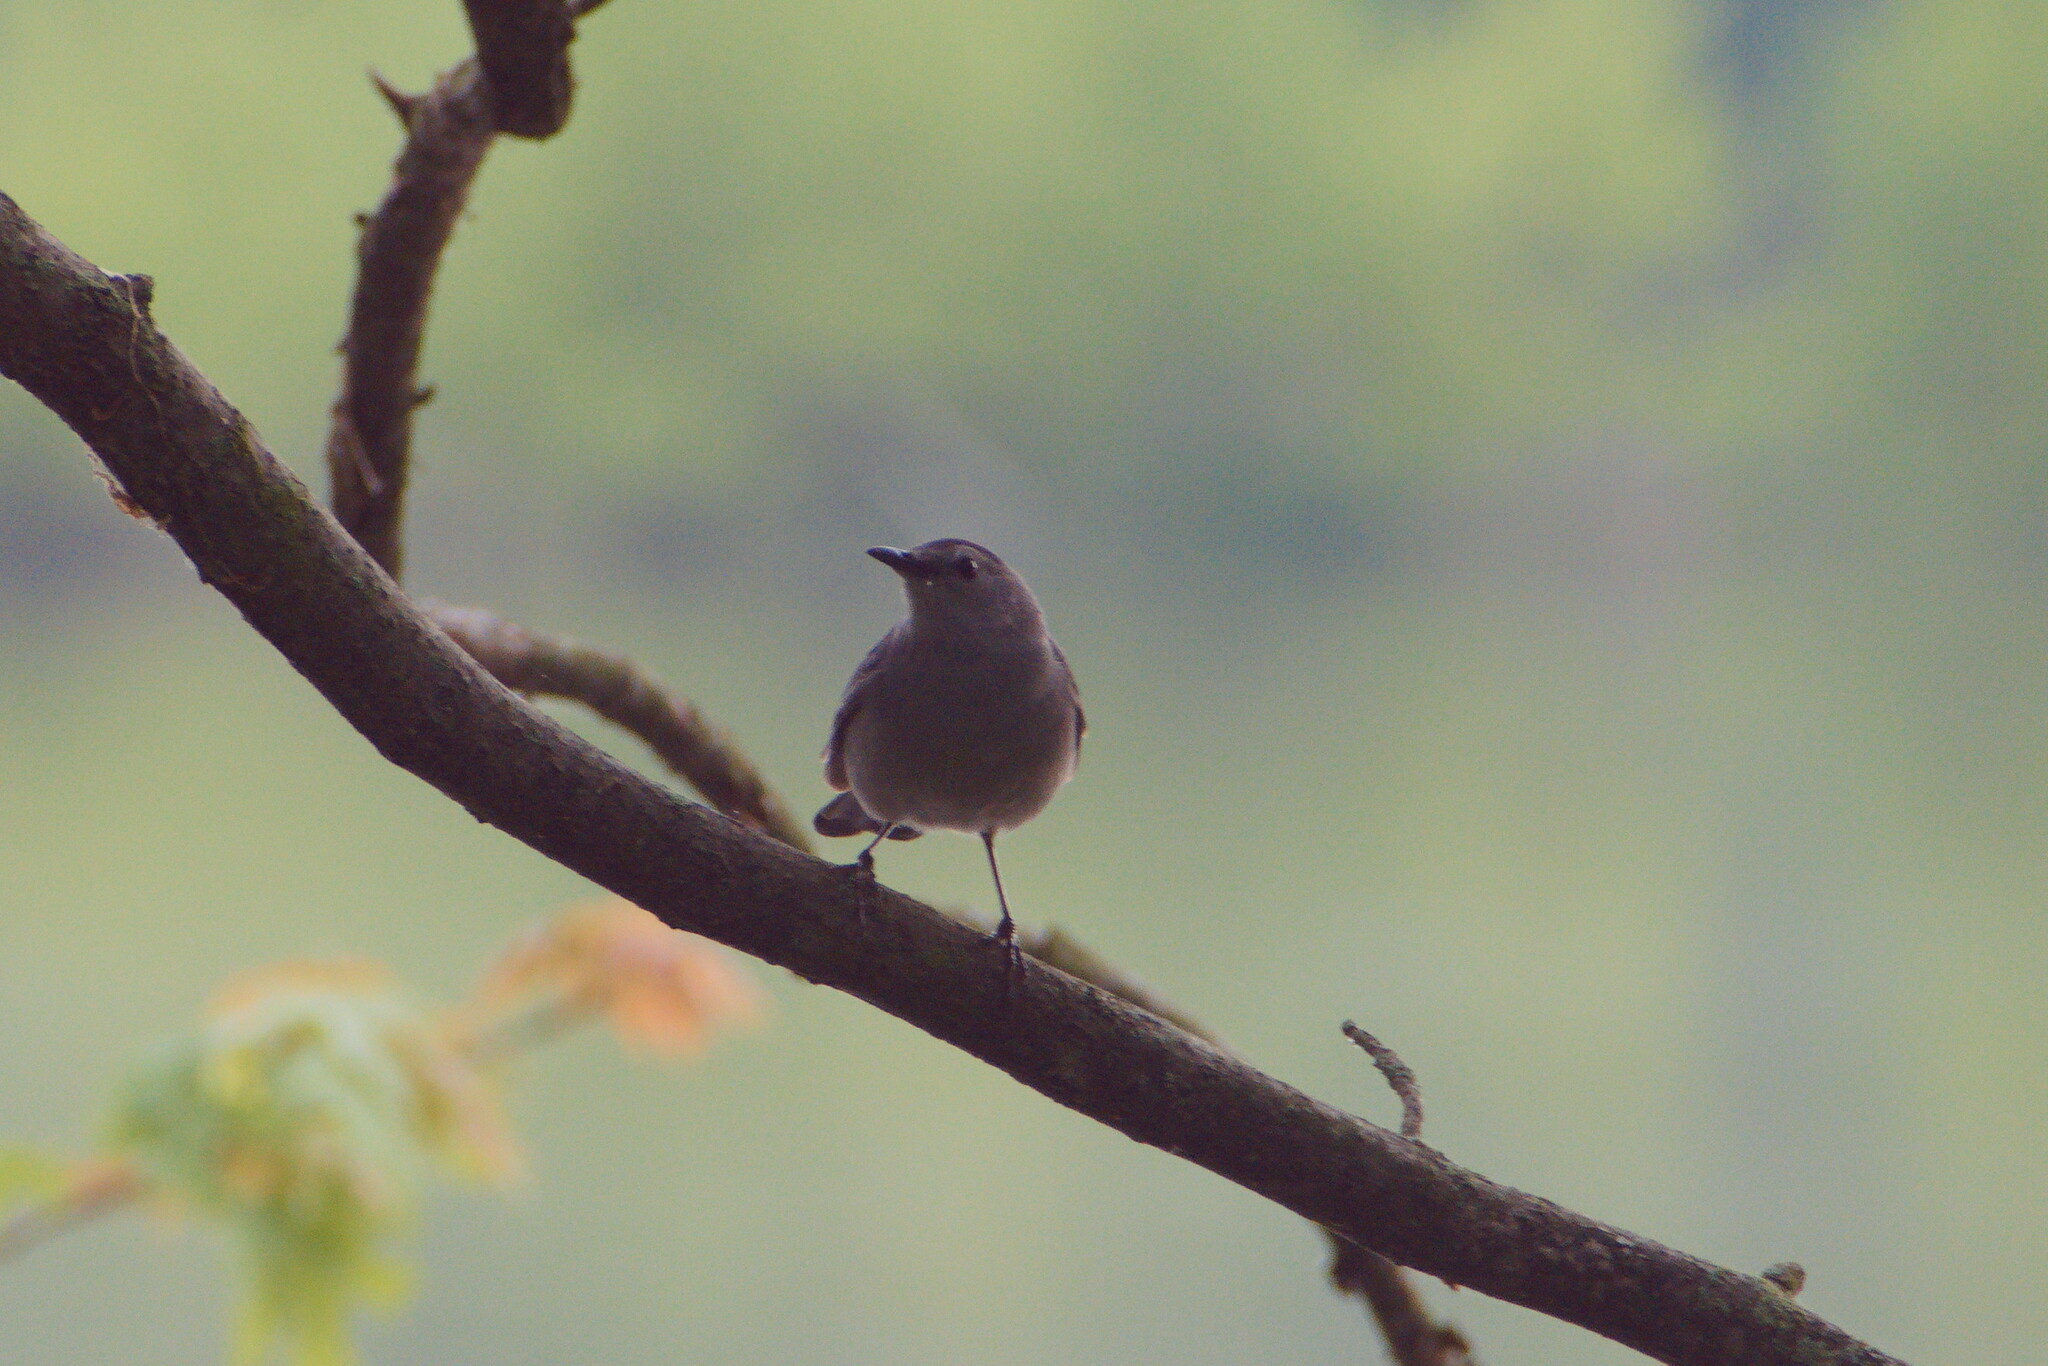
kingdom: Animalia
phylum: Chordata
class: Aves
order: Passeriformes
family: Mimidae
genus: Dumetella
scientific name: Dumetella carolinensis
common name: Gray catbird
